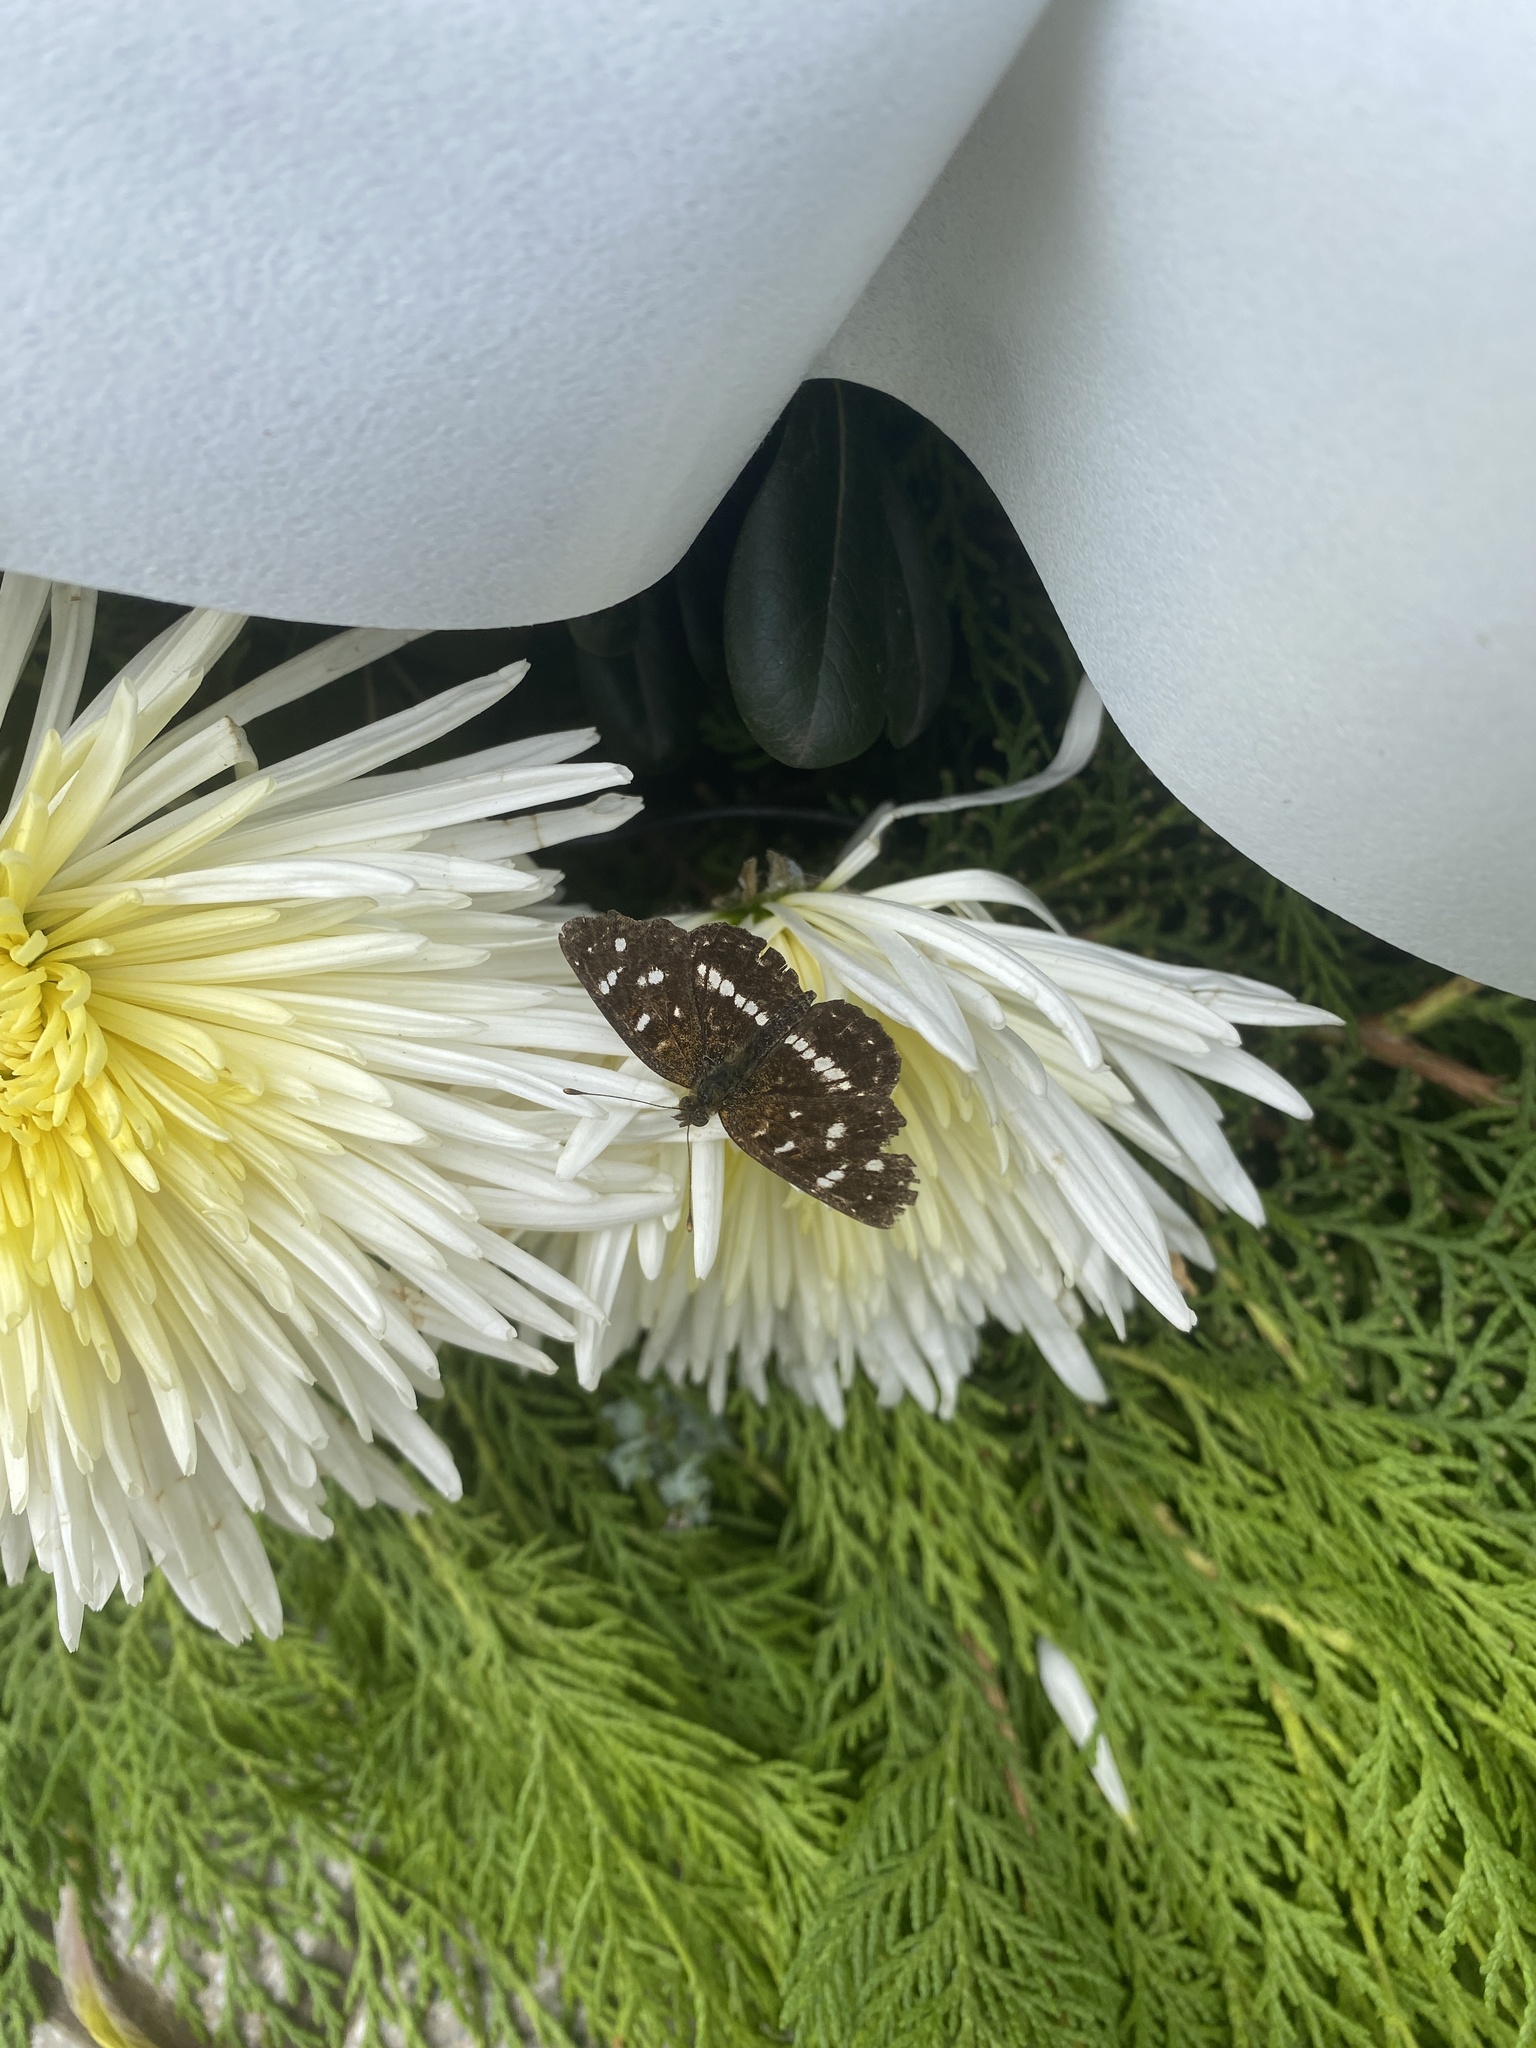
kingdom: Animalia
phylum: Arthropoda
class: Insecta
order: Lepidoptera
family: Nymphalidae
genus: Ortilia
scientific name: Ortilia ithra
